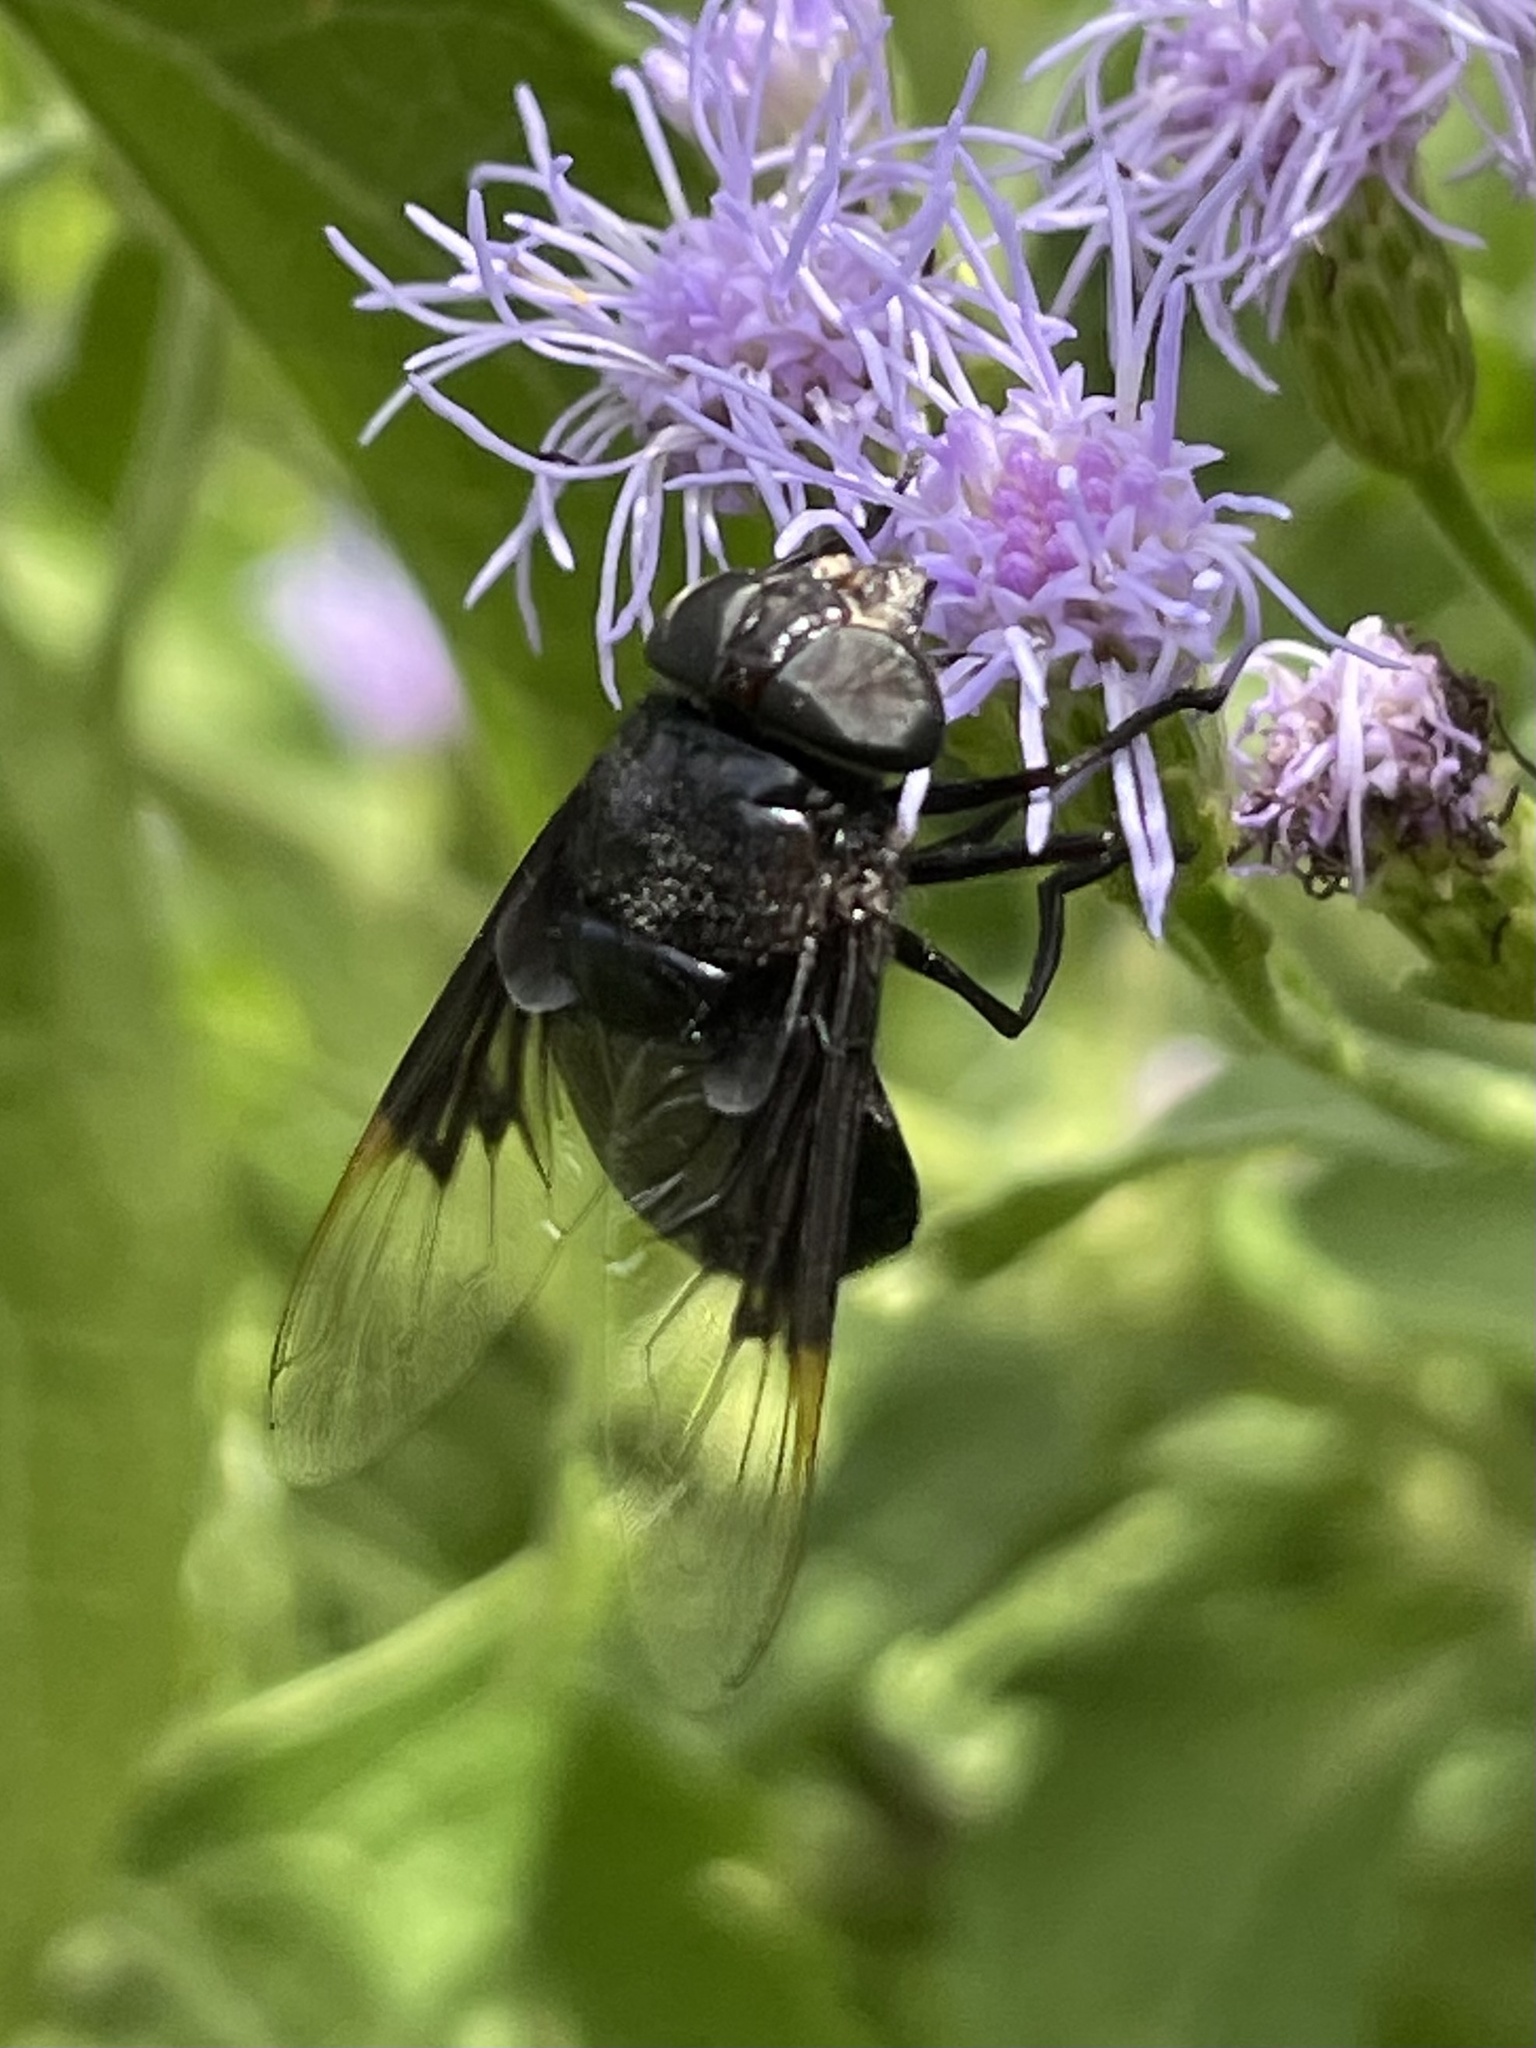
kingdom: Animalia
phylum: Arthropoda
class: Insecta
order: Diptera
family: Syrphidae
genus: Copestylum
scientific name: Copestylum
